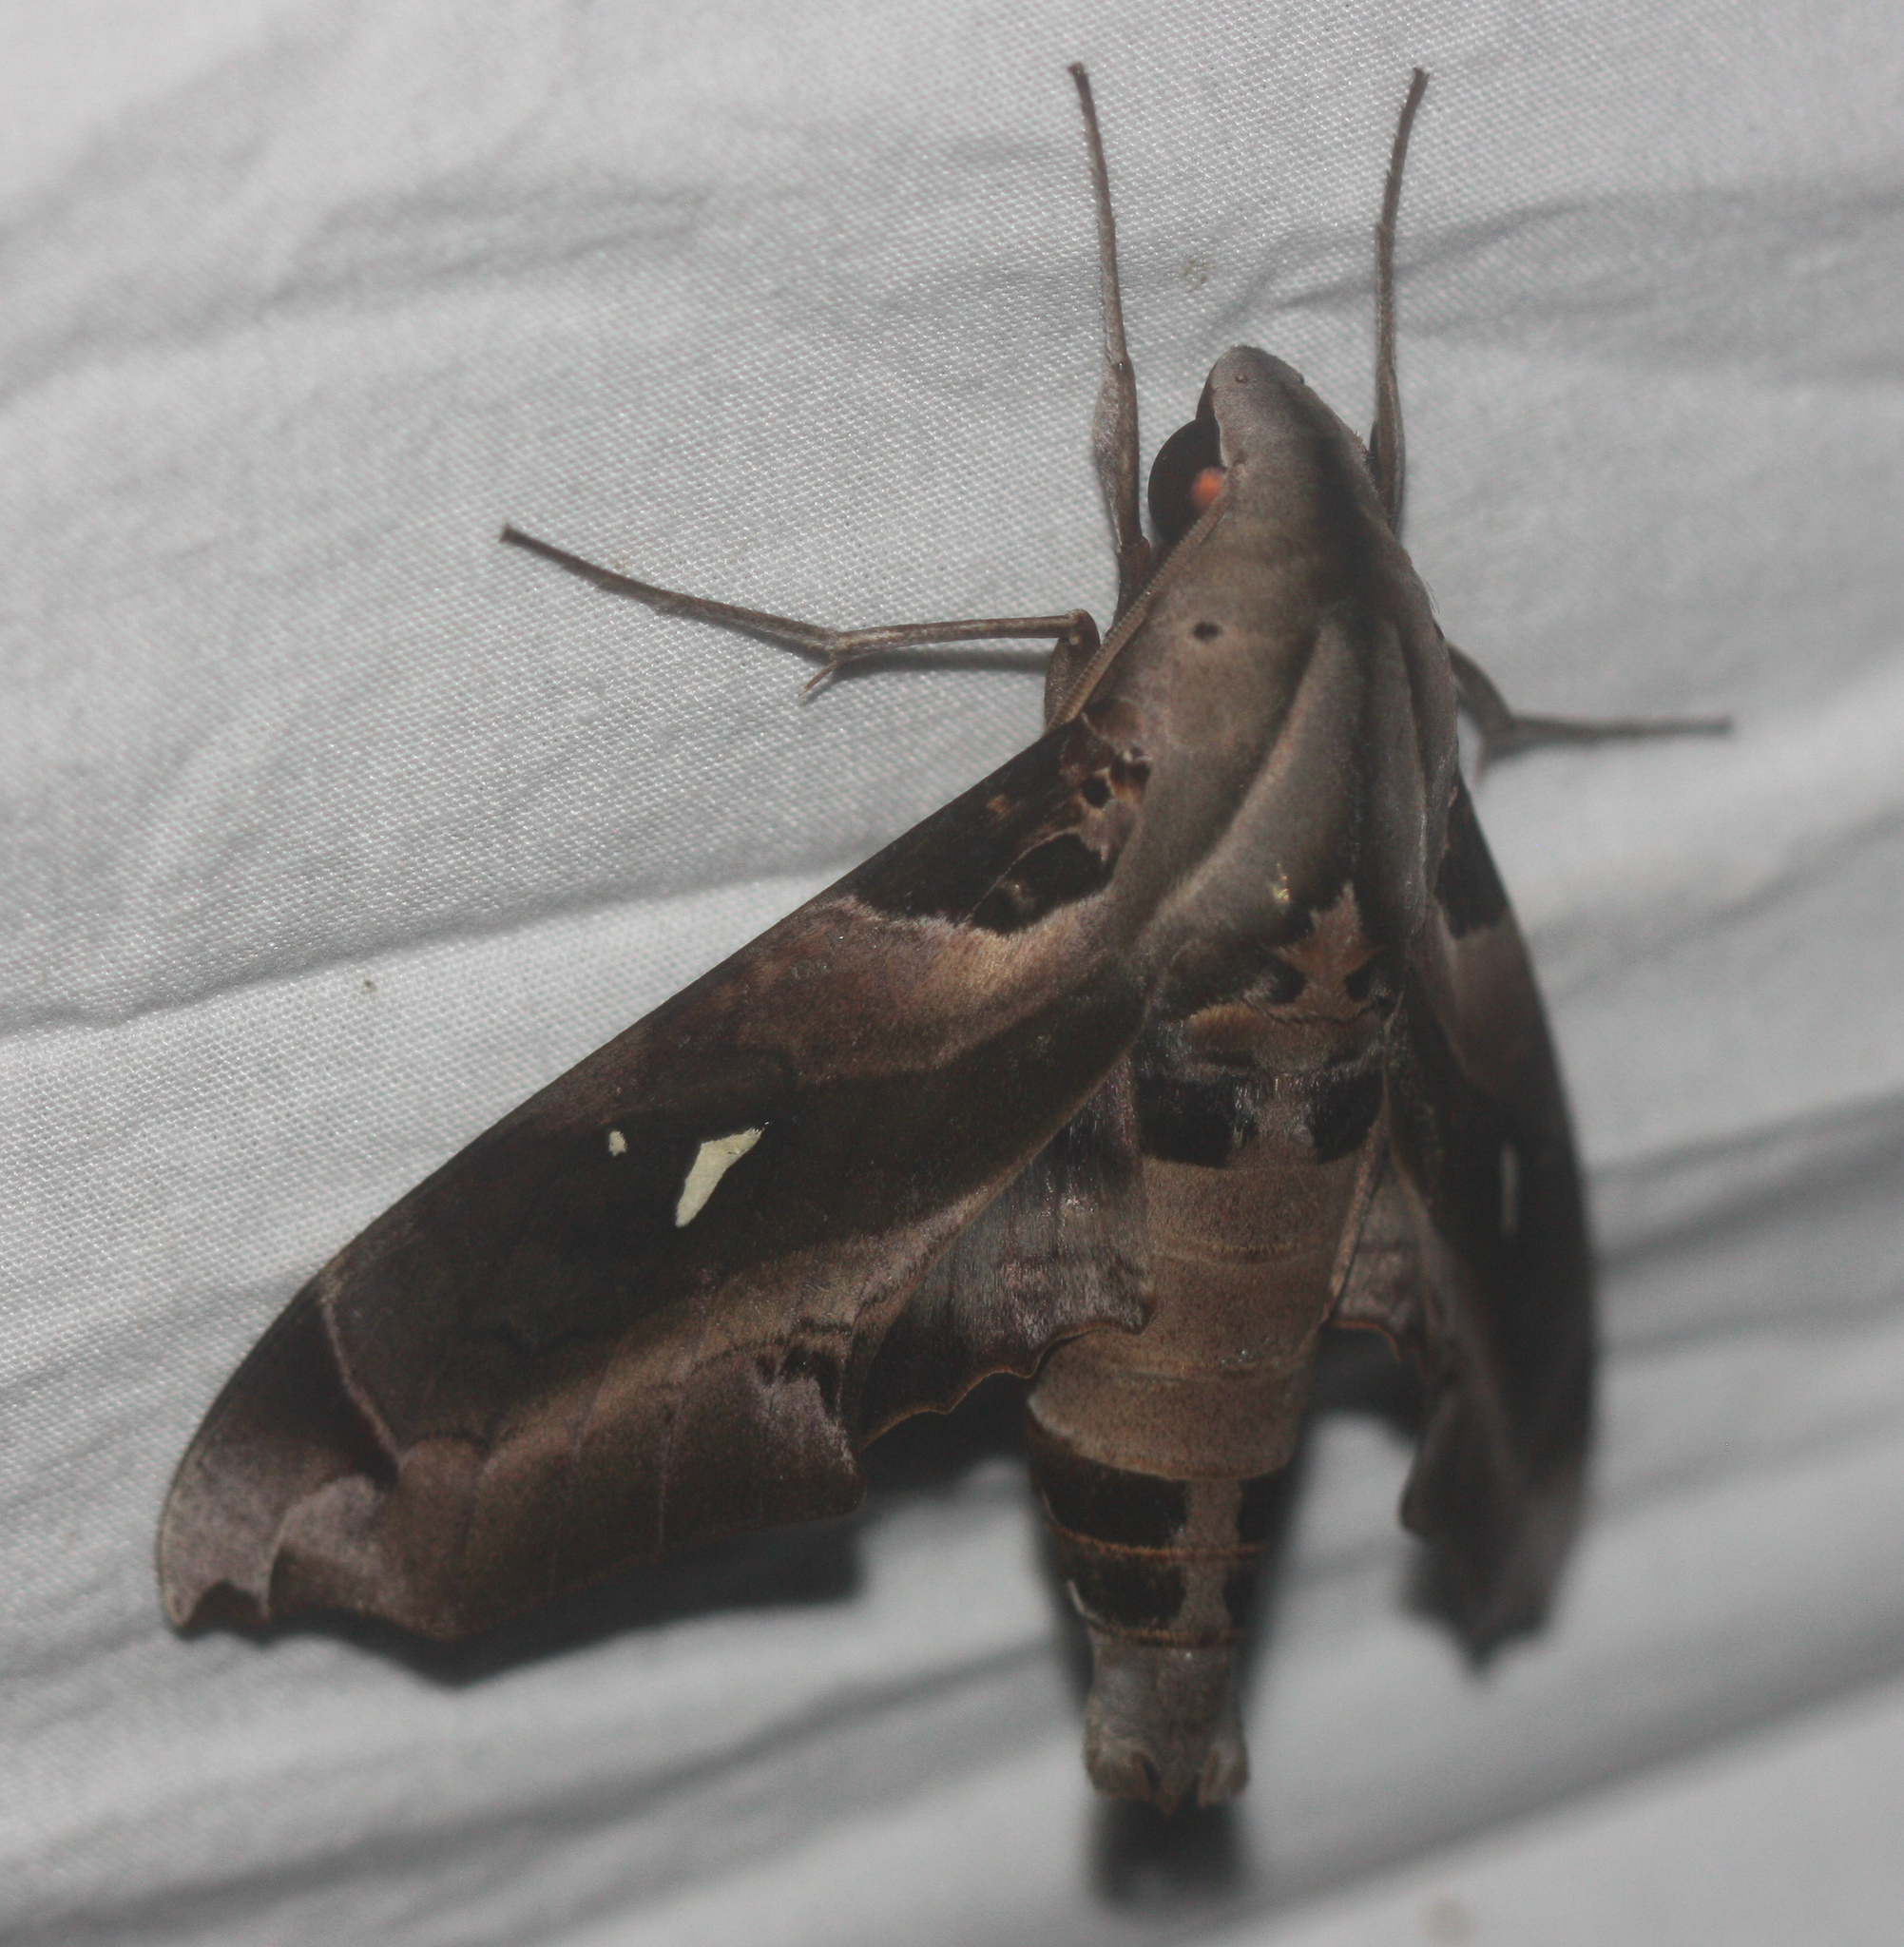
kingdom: Animalia
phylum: Arthropoda
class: Insecta
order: Lepidoptera
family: Sphingidae
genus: Madoryx
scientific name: Madoryx plutonius
